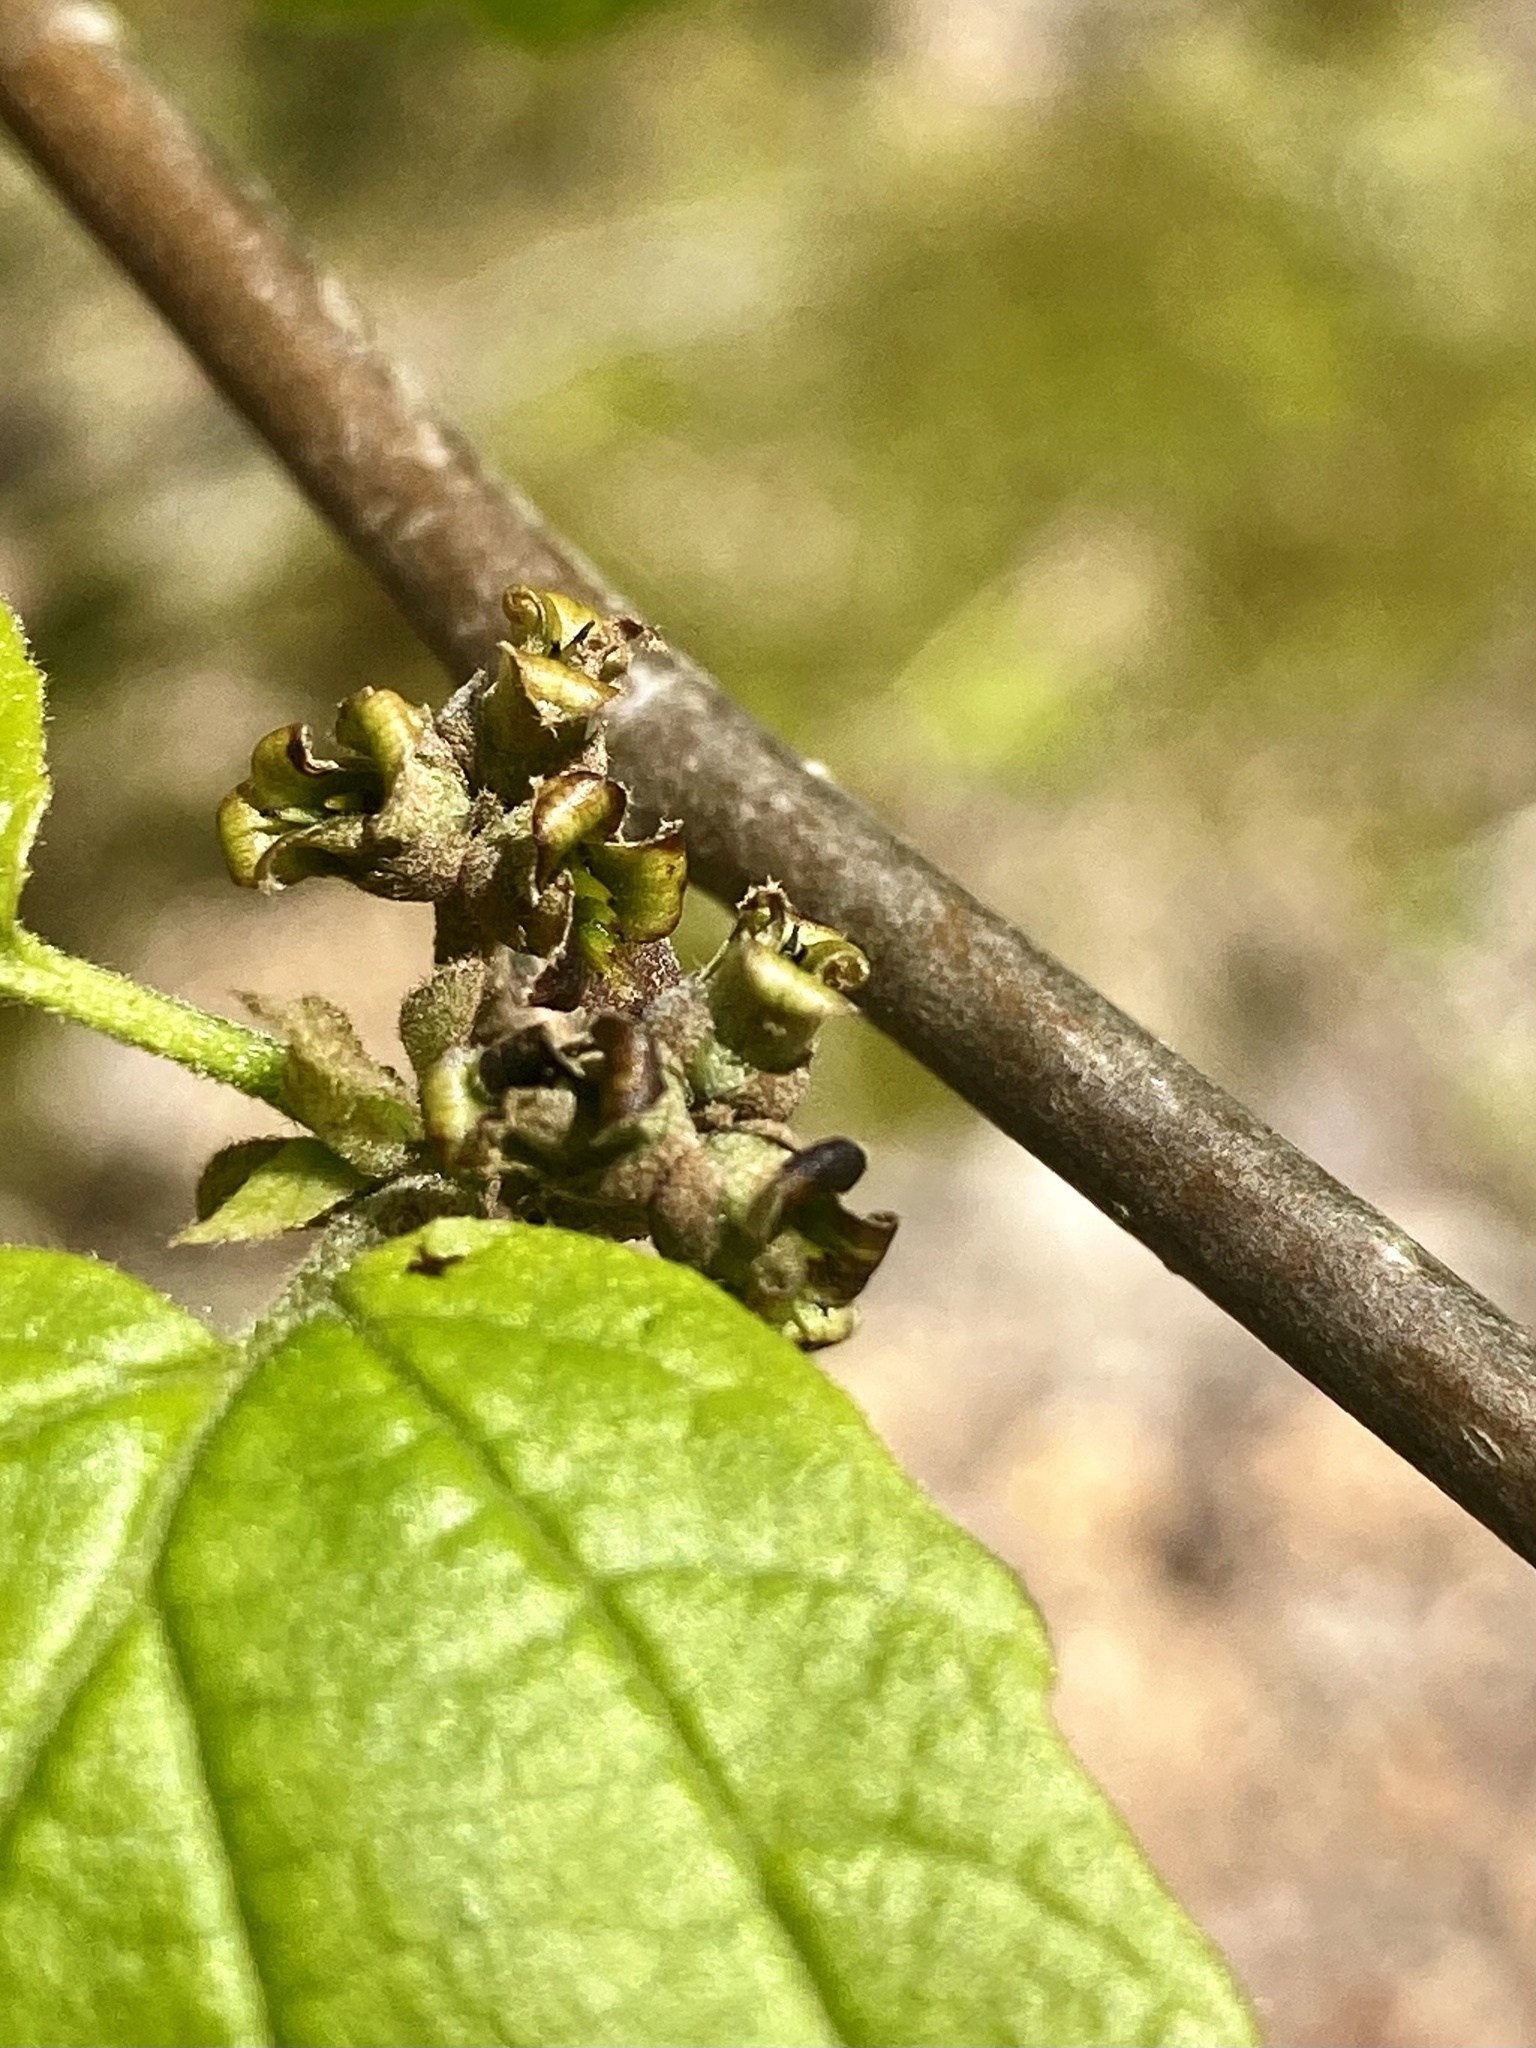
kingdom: Plantae
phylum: Tracheophyta
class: Magnoliopsida
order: Saxifragales
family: Hamamelidaceae
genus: Hamamelis
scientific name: Hamamelis virginiana
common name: Witch-hazel
